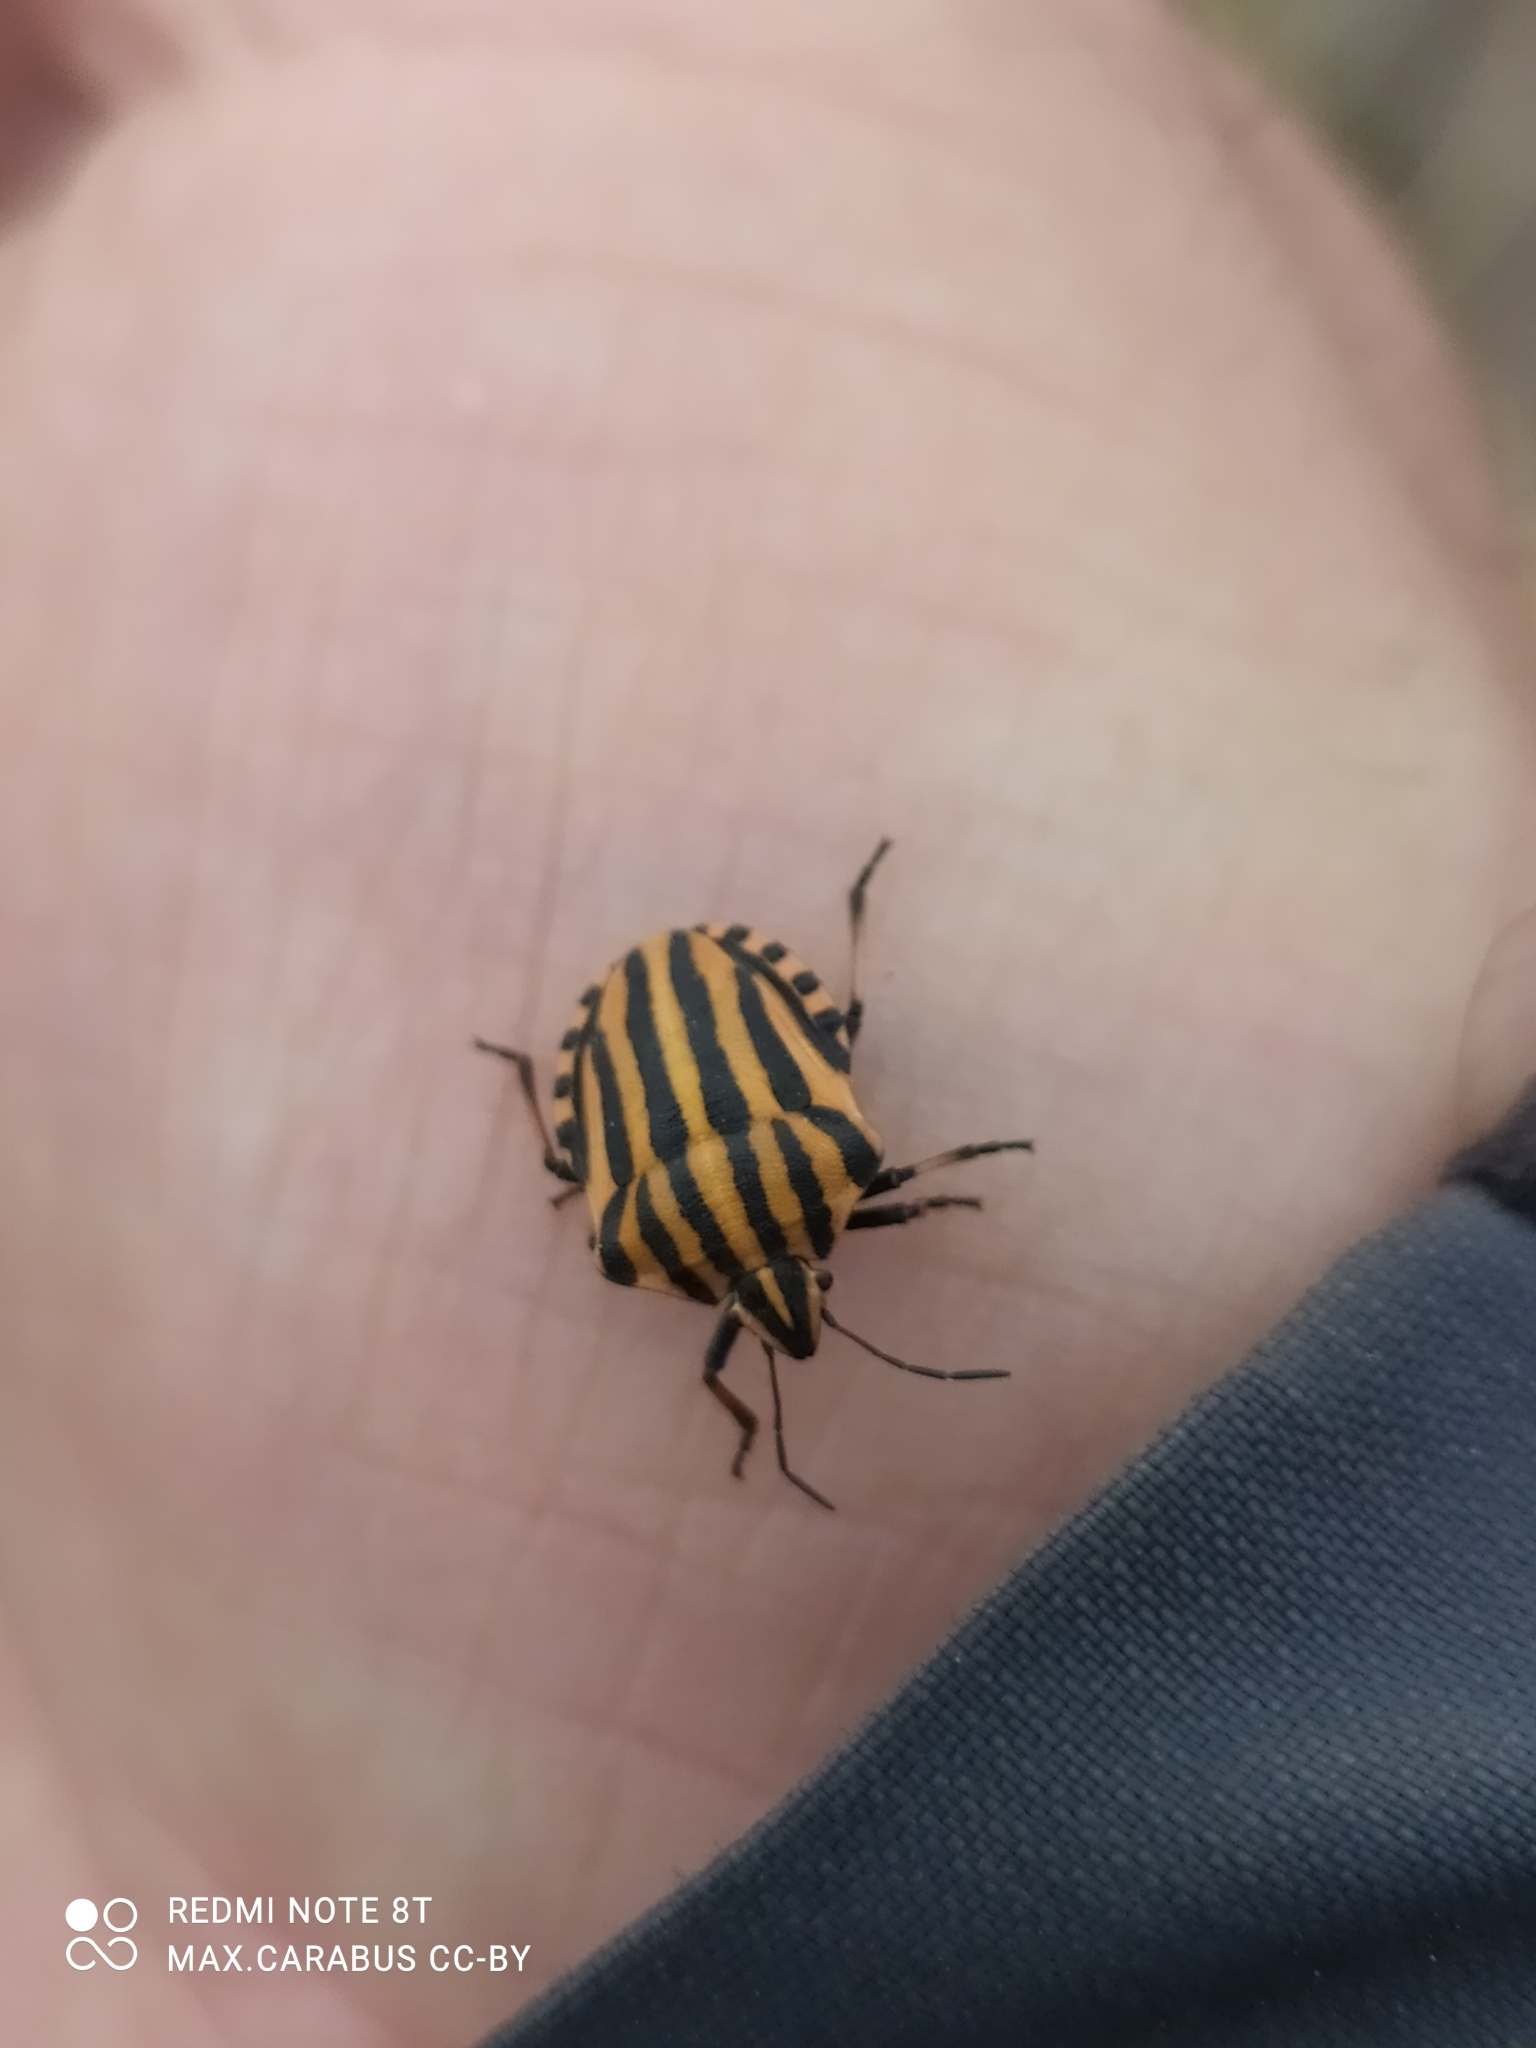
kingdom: Animalia
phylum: Arthropoda
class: Insecta
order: Hemiptera
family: Pentatomidae
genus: Graphosoma
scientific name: Graphosoma italicum
